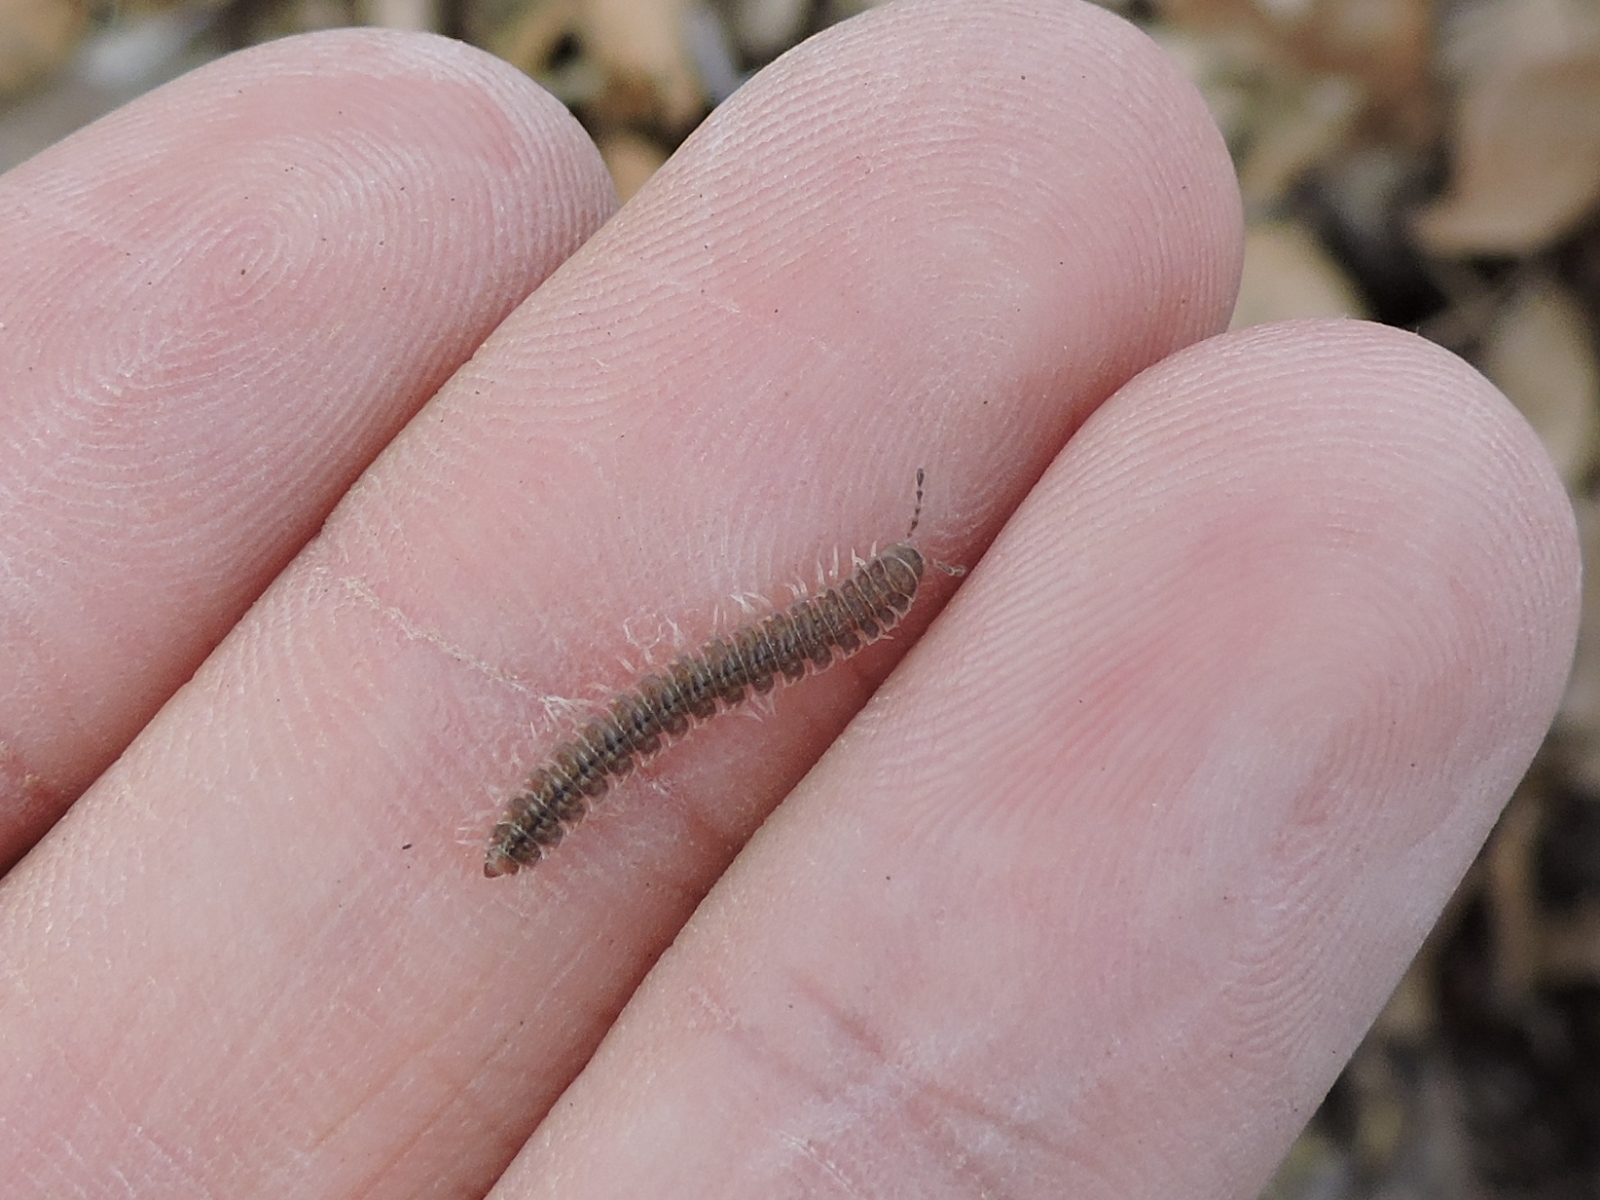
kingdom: Animalia
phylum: Arthropoda
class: Diplopoda
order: Polydesmida
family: Polydesmidae
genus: Pseudopolydesmus
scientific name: Pseudopolydesmus pinetorum
